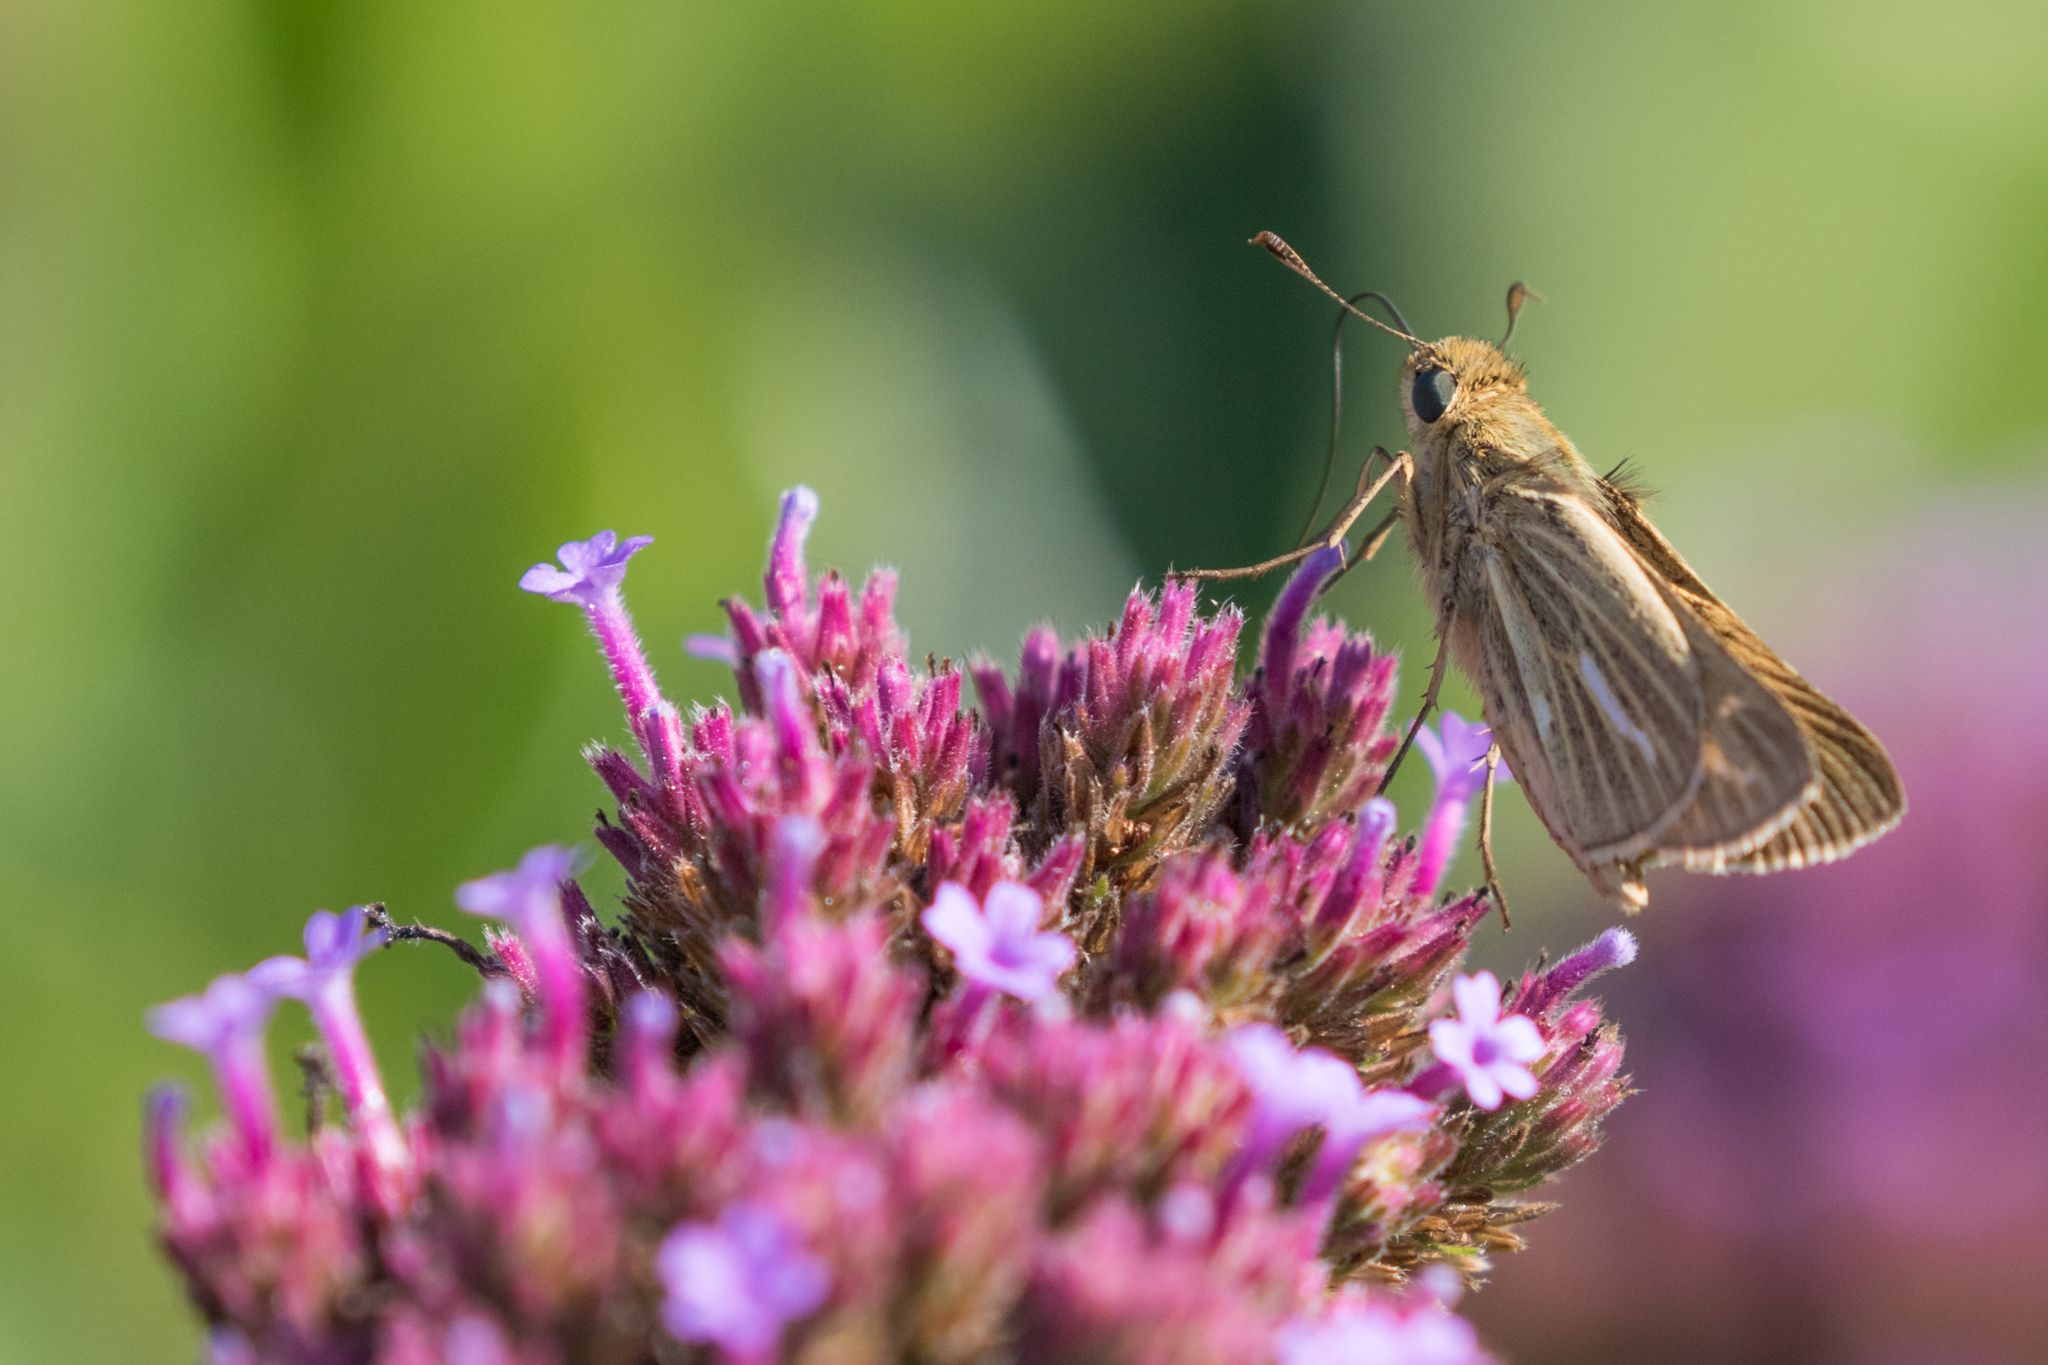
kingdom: Animalia
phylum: Arthropoda
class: Insecta
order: Lepidoptera
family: Hesperiidae
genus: Panoquina
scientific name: Panoquina panoquin
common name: Salt marsh skipper
